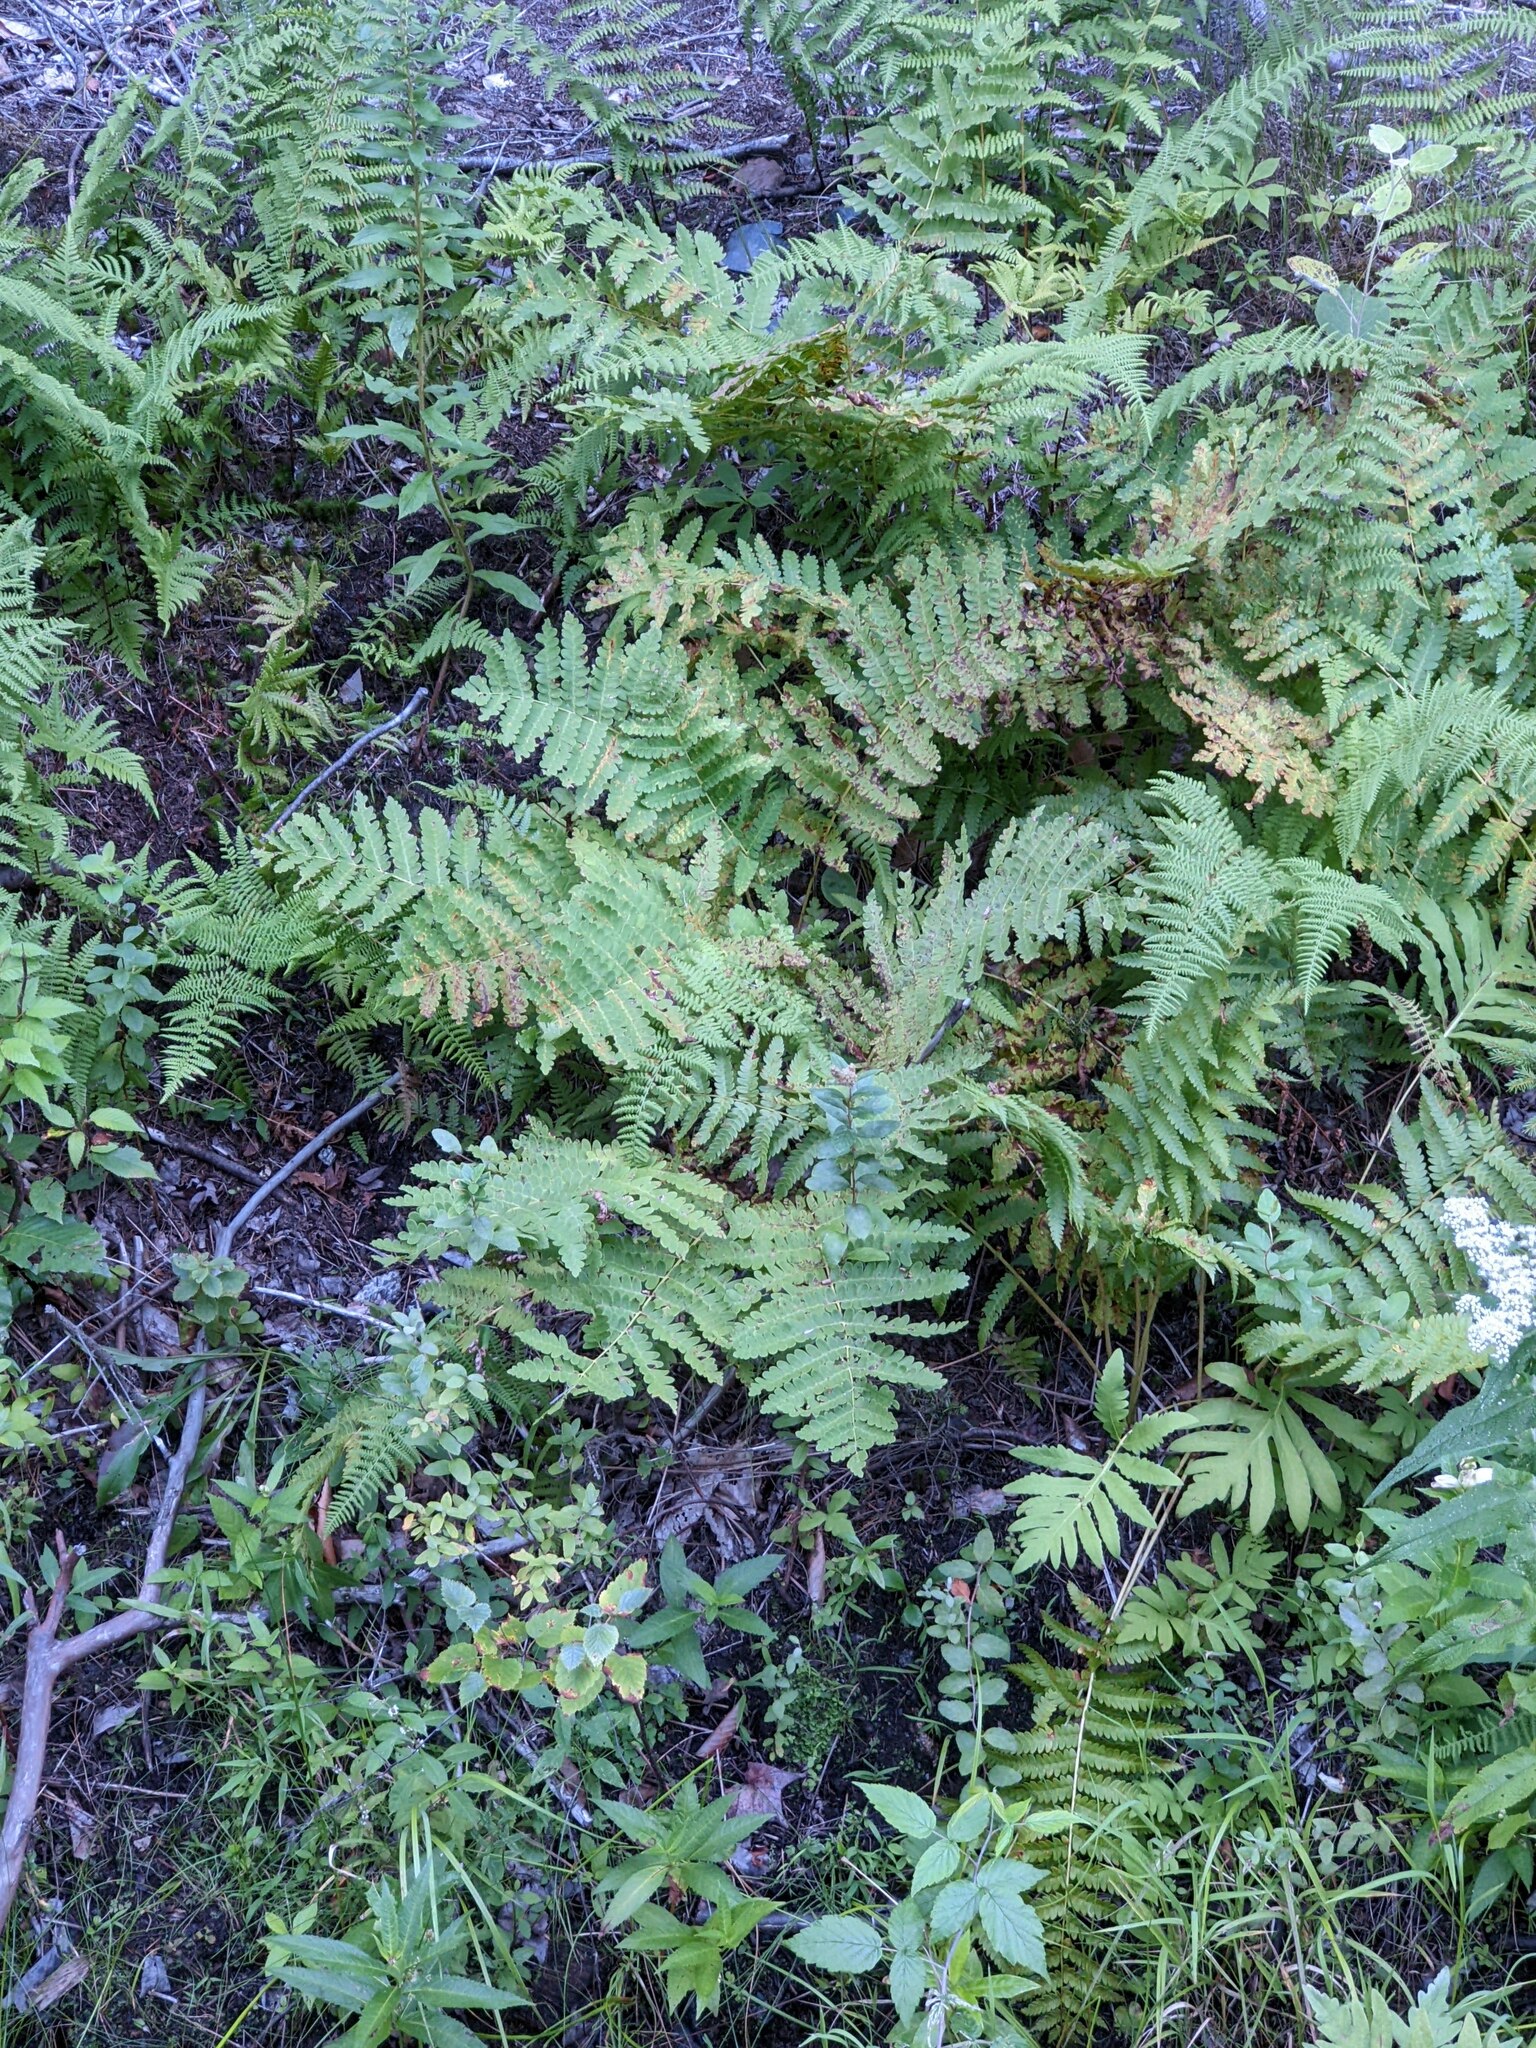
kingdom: Plantae
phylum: Tracheophyta
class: Polypodiopsida
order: Osmundales
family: Osmundaceae
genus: Claytosmunda
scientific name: Claytosmunda claytoniana
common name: Clayton's fern
